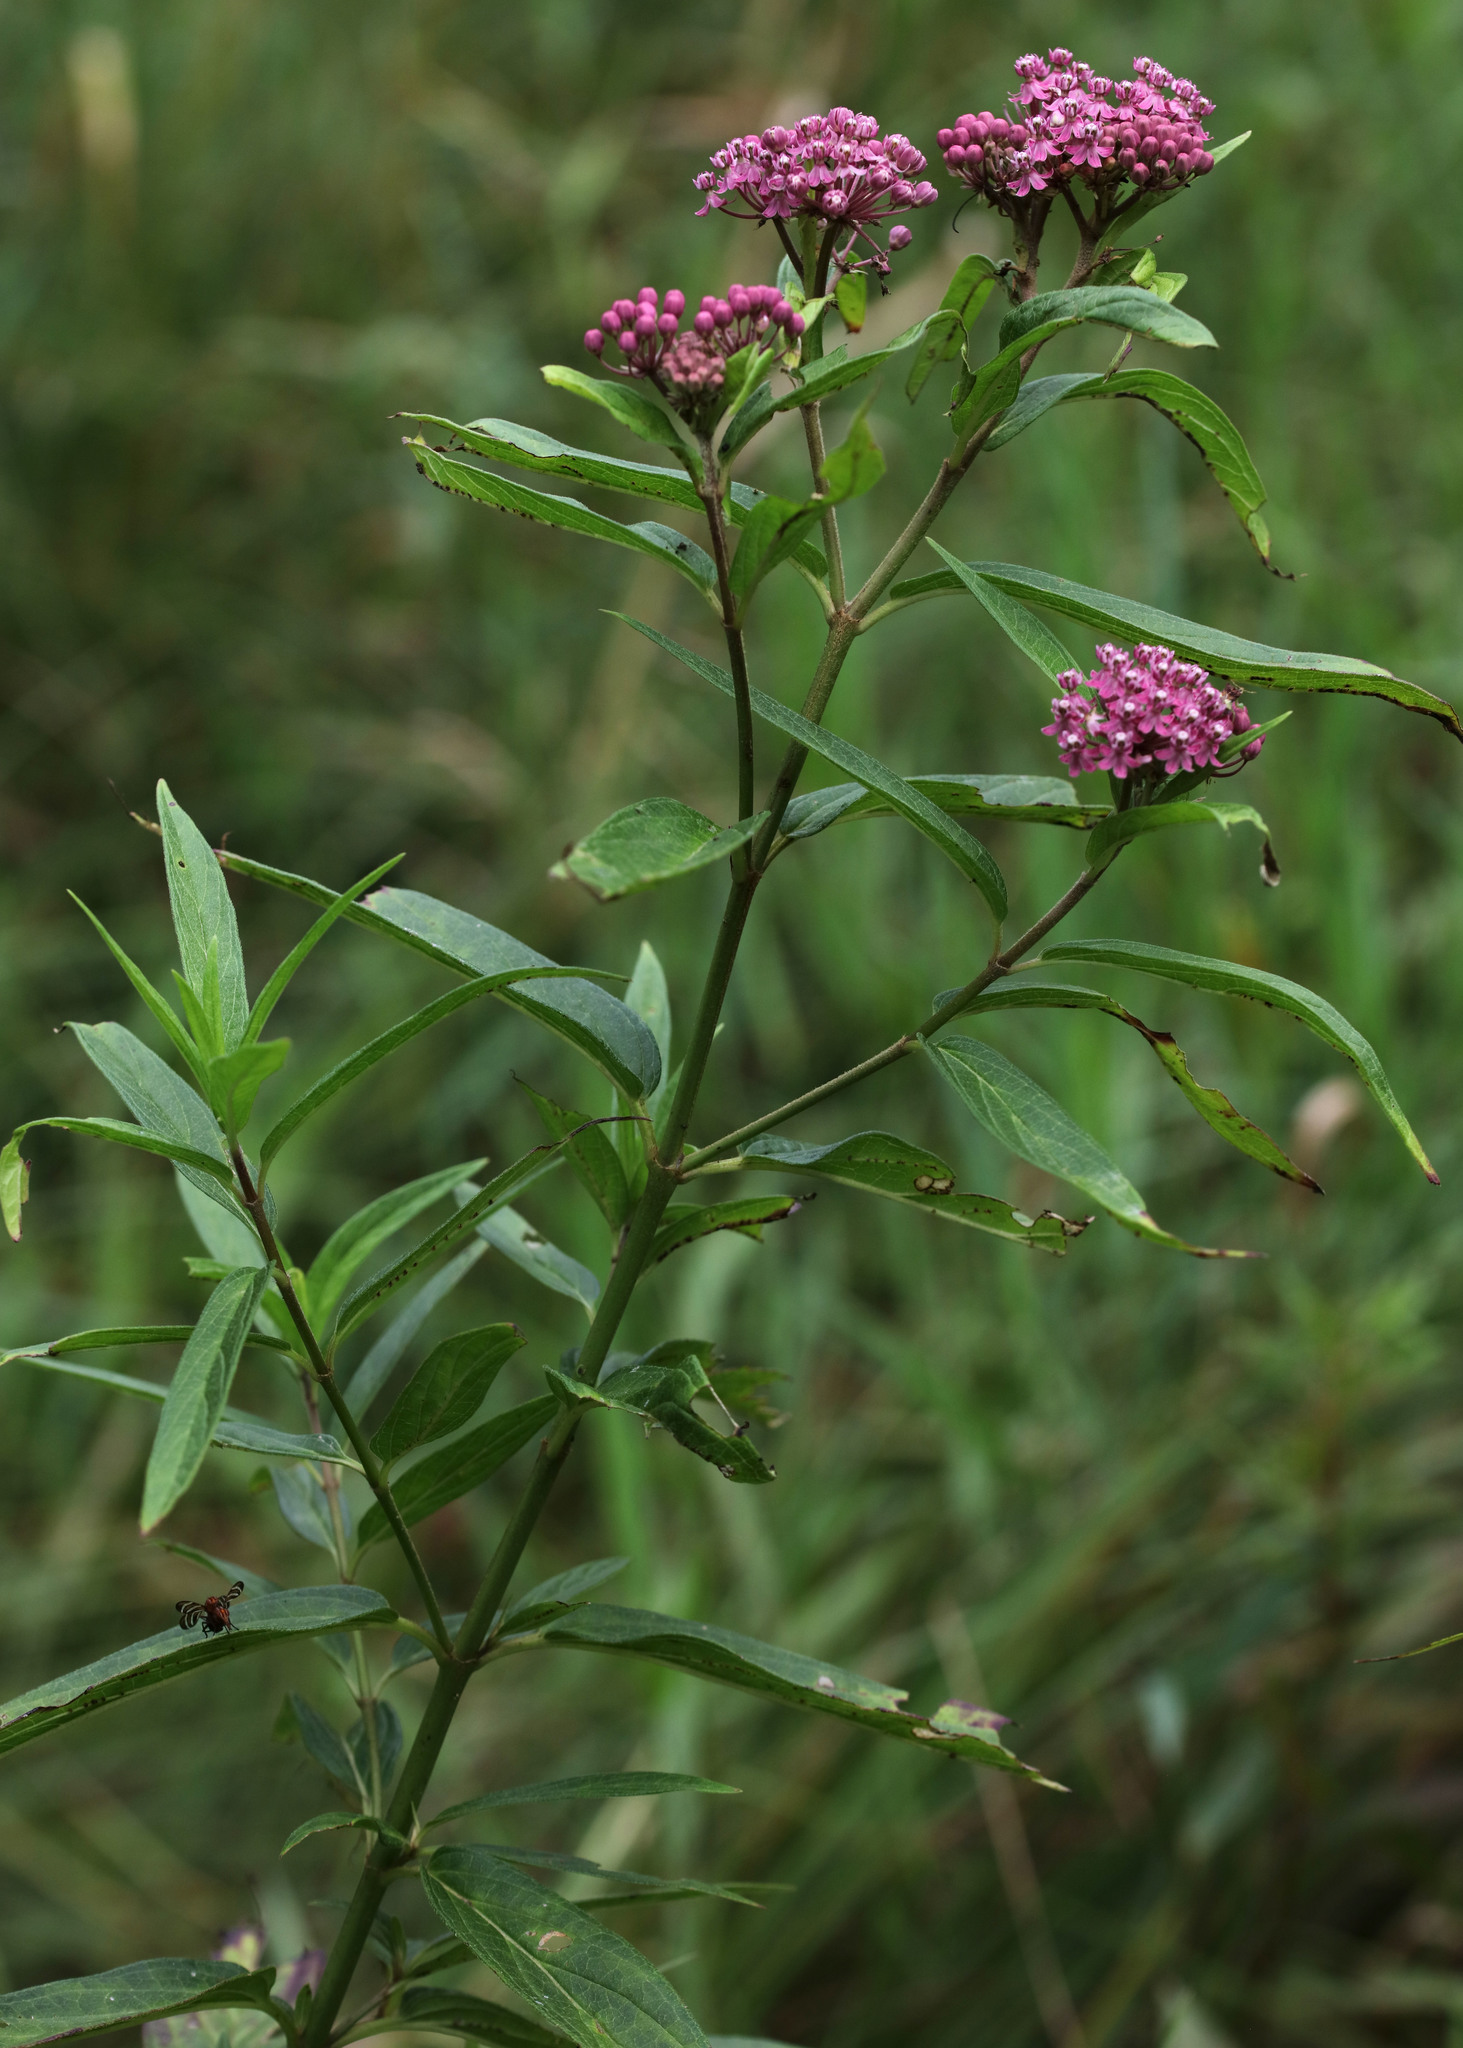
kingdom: Plantae
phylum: Tracheophyta
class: Magnoliopsida
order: Gentianales
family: Apocynaceae
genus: Asclepias
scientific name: Asclepias incarnata
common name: Swamp milkweed
